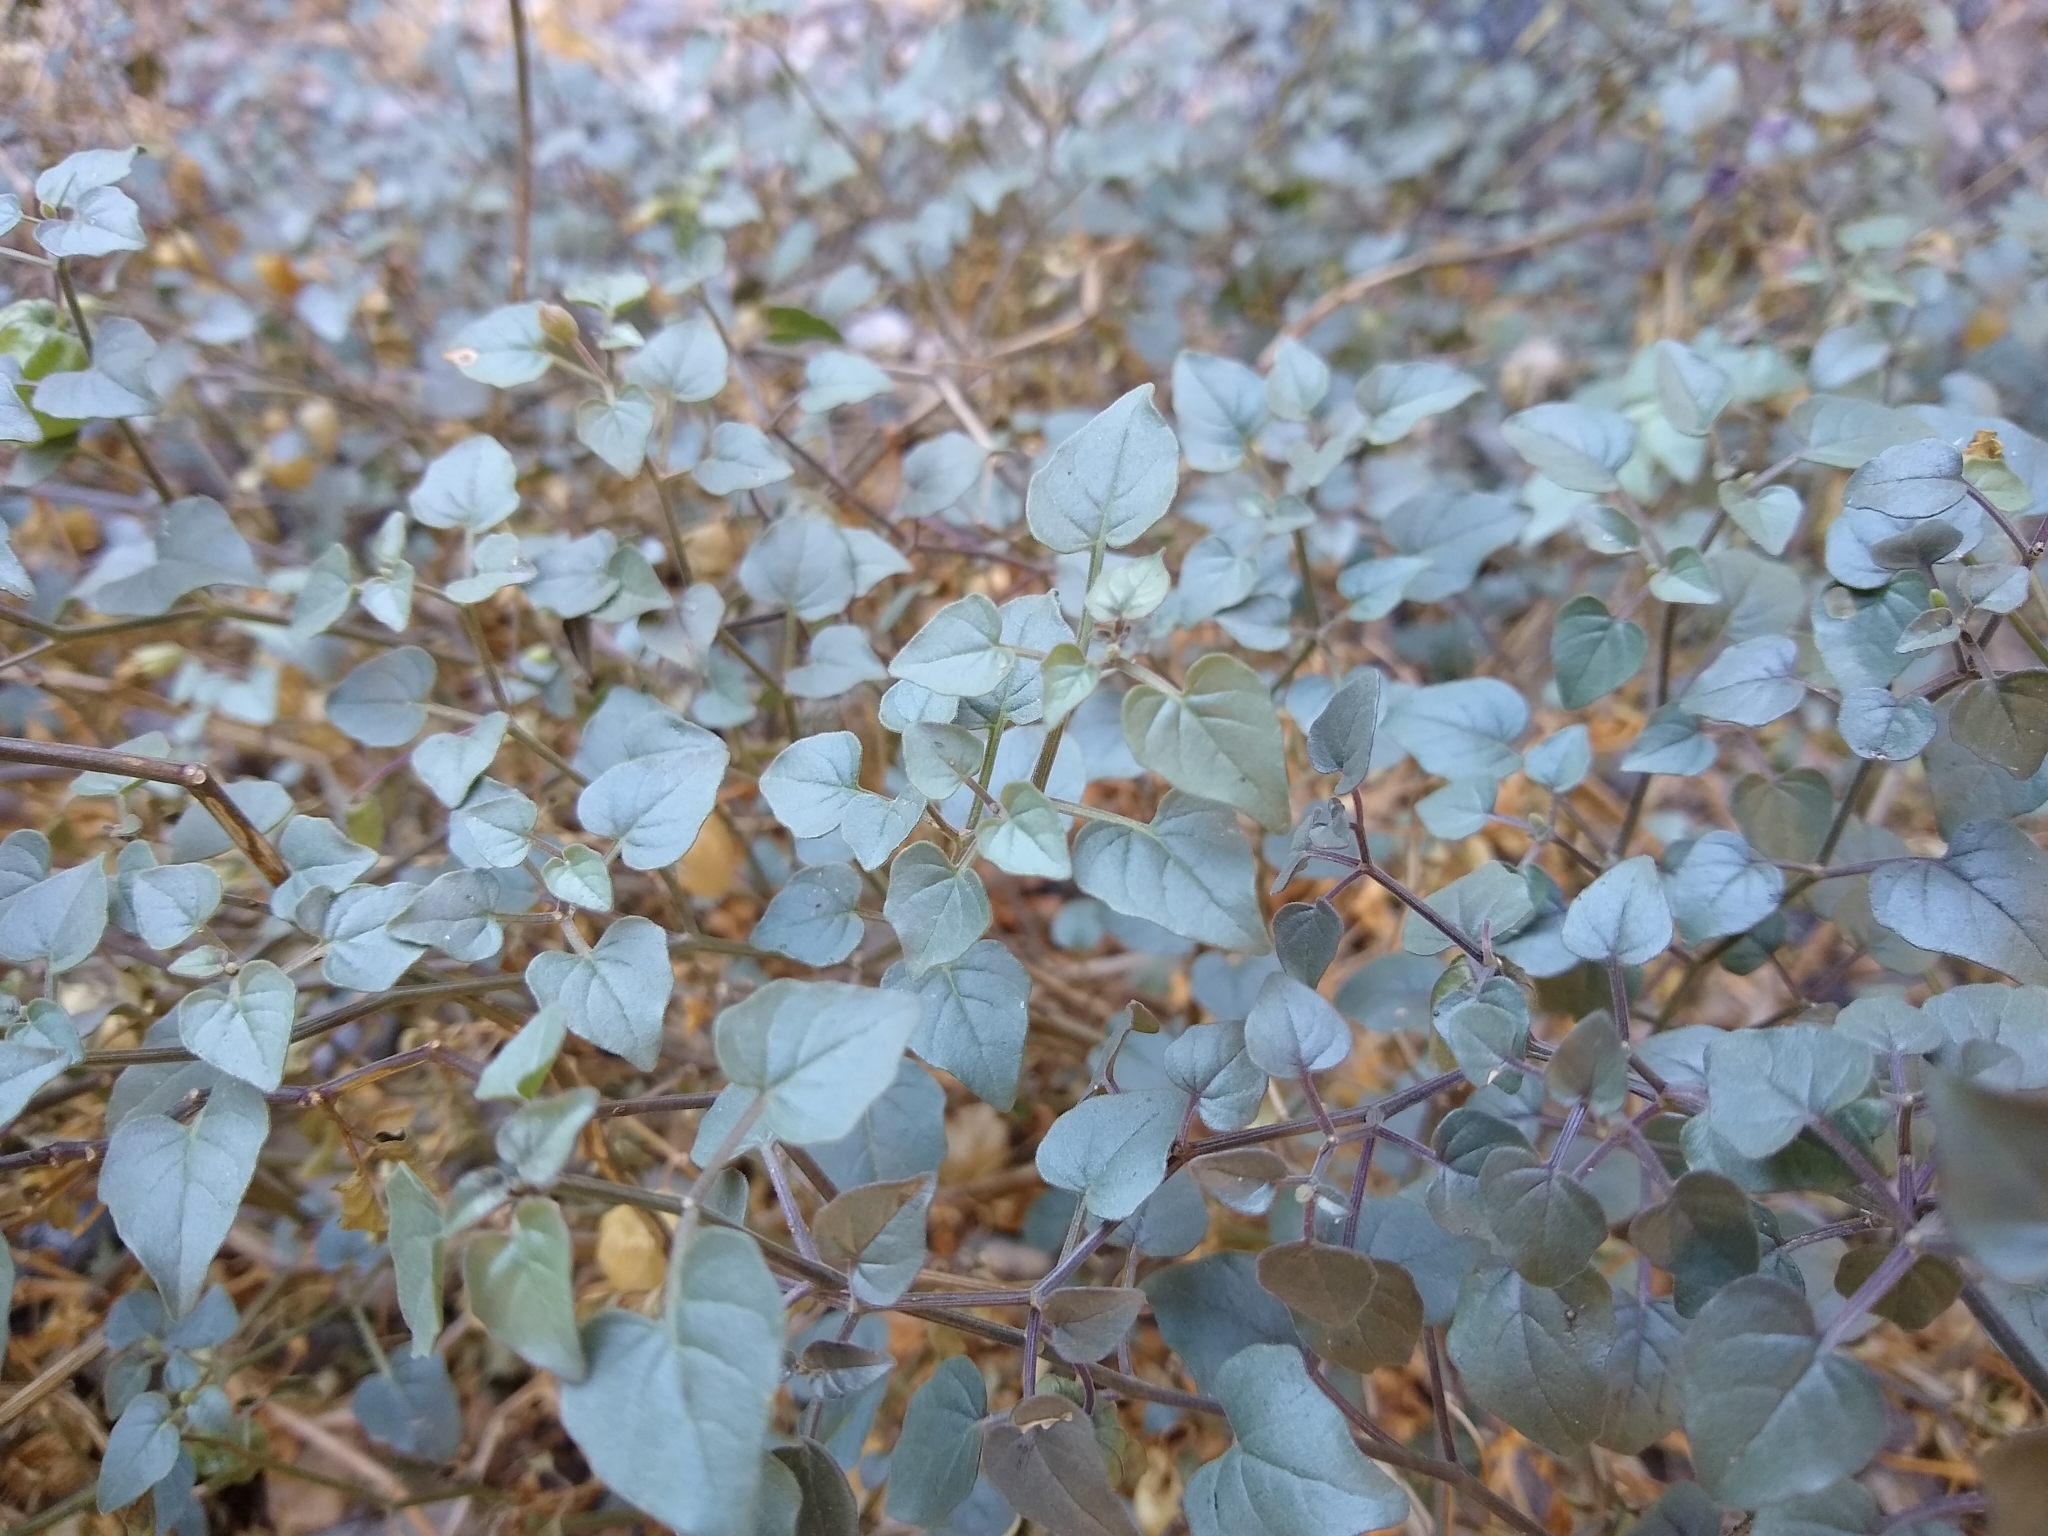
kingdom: Plantae
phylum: Tracheophyta
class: Magnoliopsida
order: Solanales
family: Solanaceae
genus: Physalis
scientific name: Physalis crassifolia
